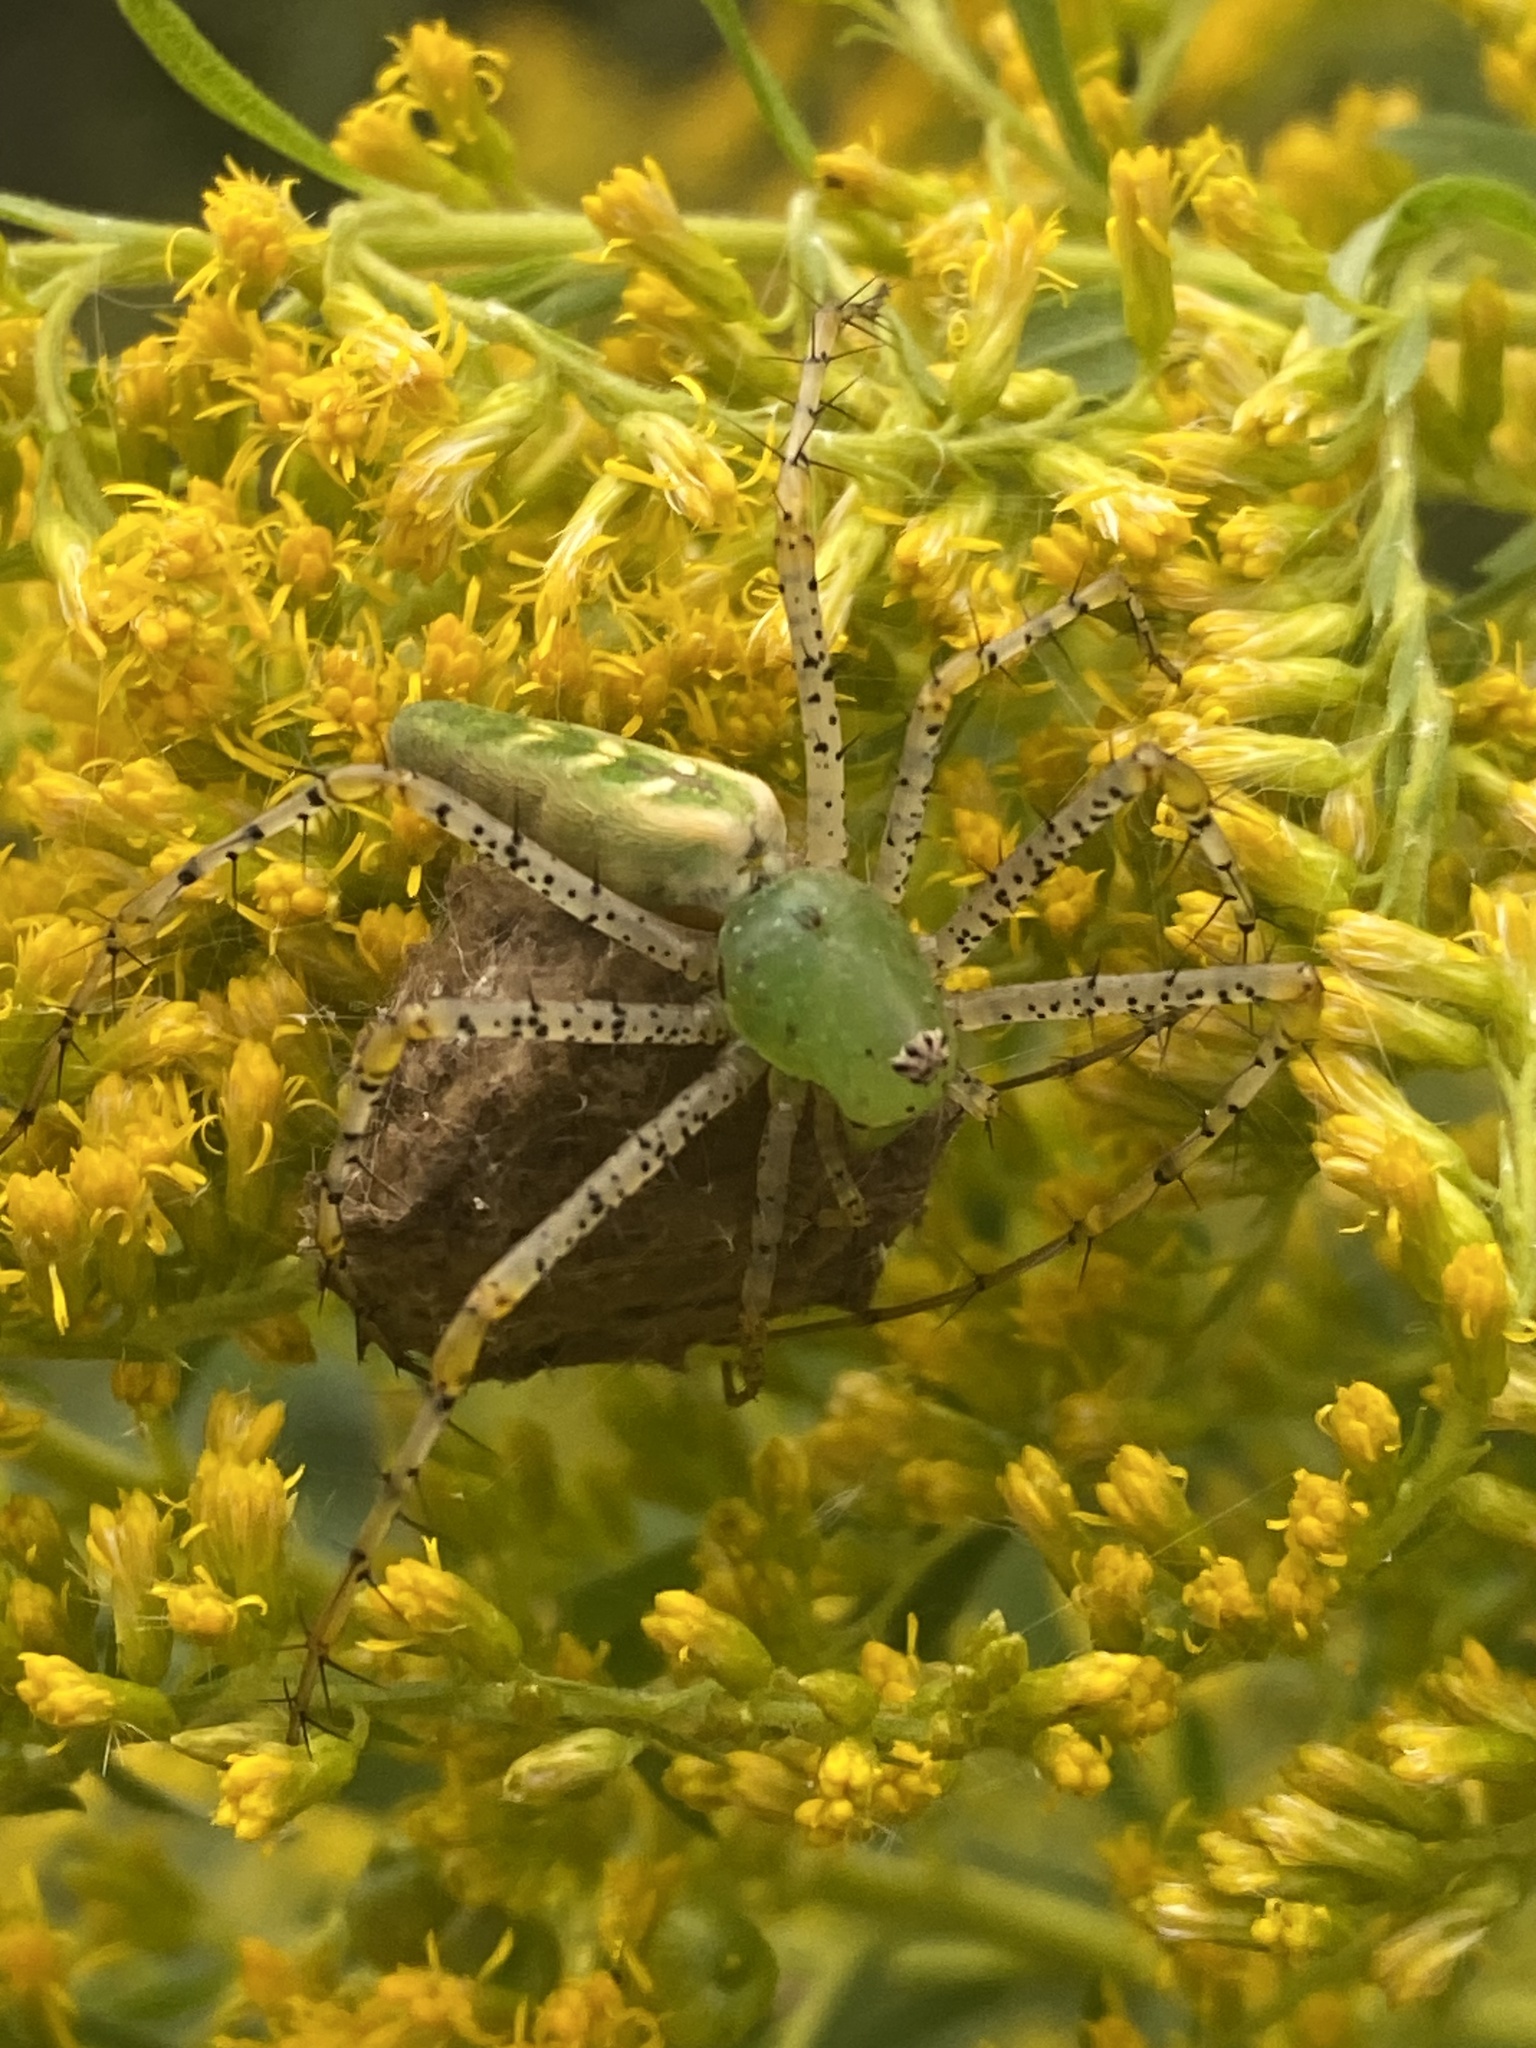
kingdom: Animalia
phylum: Arthropoda
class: Arachnida
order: Araneae
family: Oxyopidae
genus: Peucetia
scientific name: Peucetia viridans
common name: Lynx spiders
